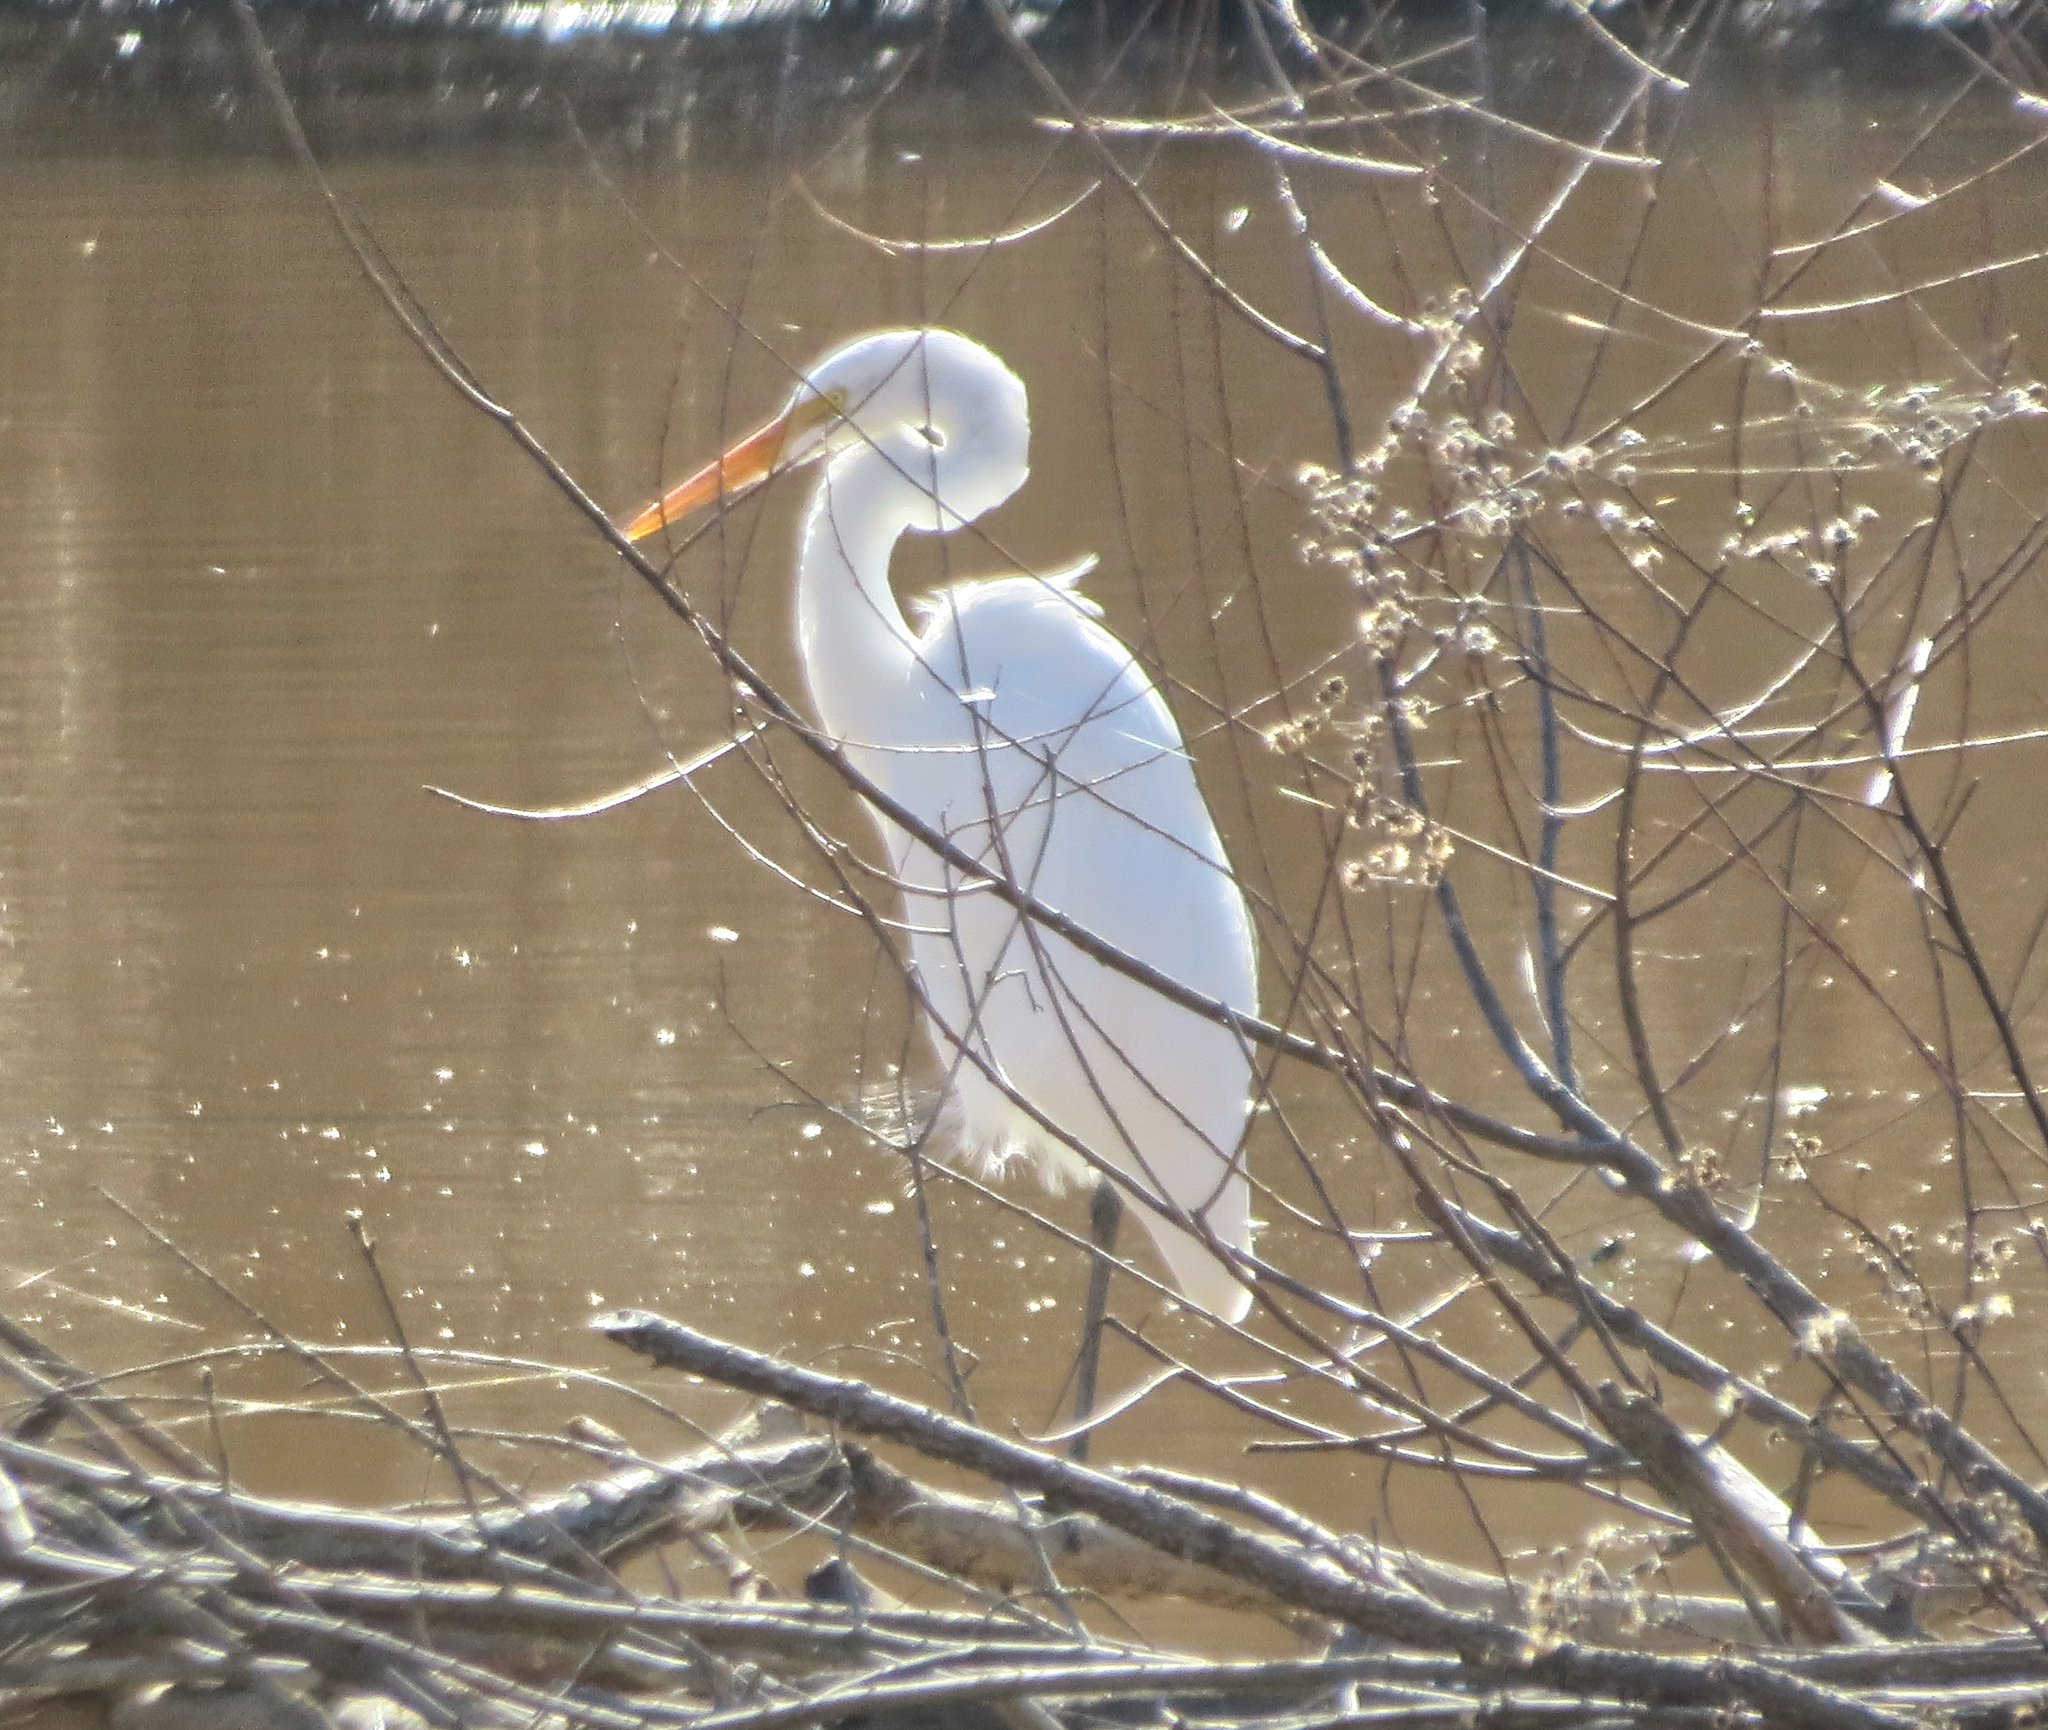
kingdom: Animalia
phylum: Chordata
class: Aves
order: Pelecaniformes
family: Ardeidae
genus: Ardea
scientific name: Ardea alba
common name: Great egret
